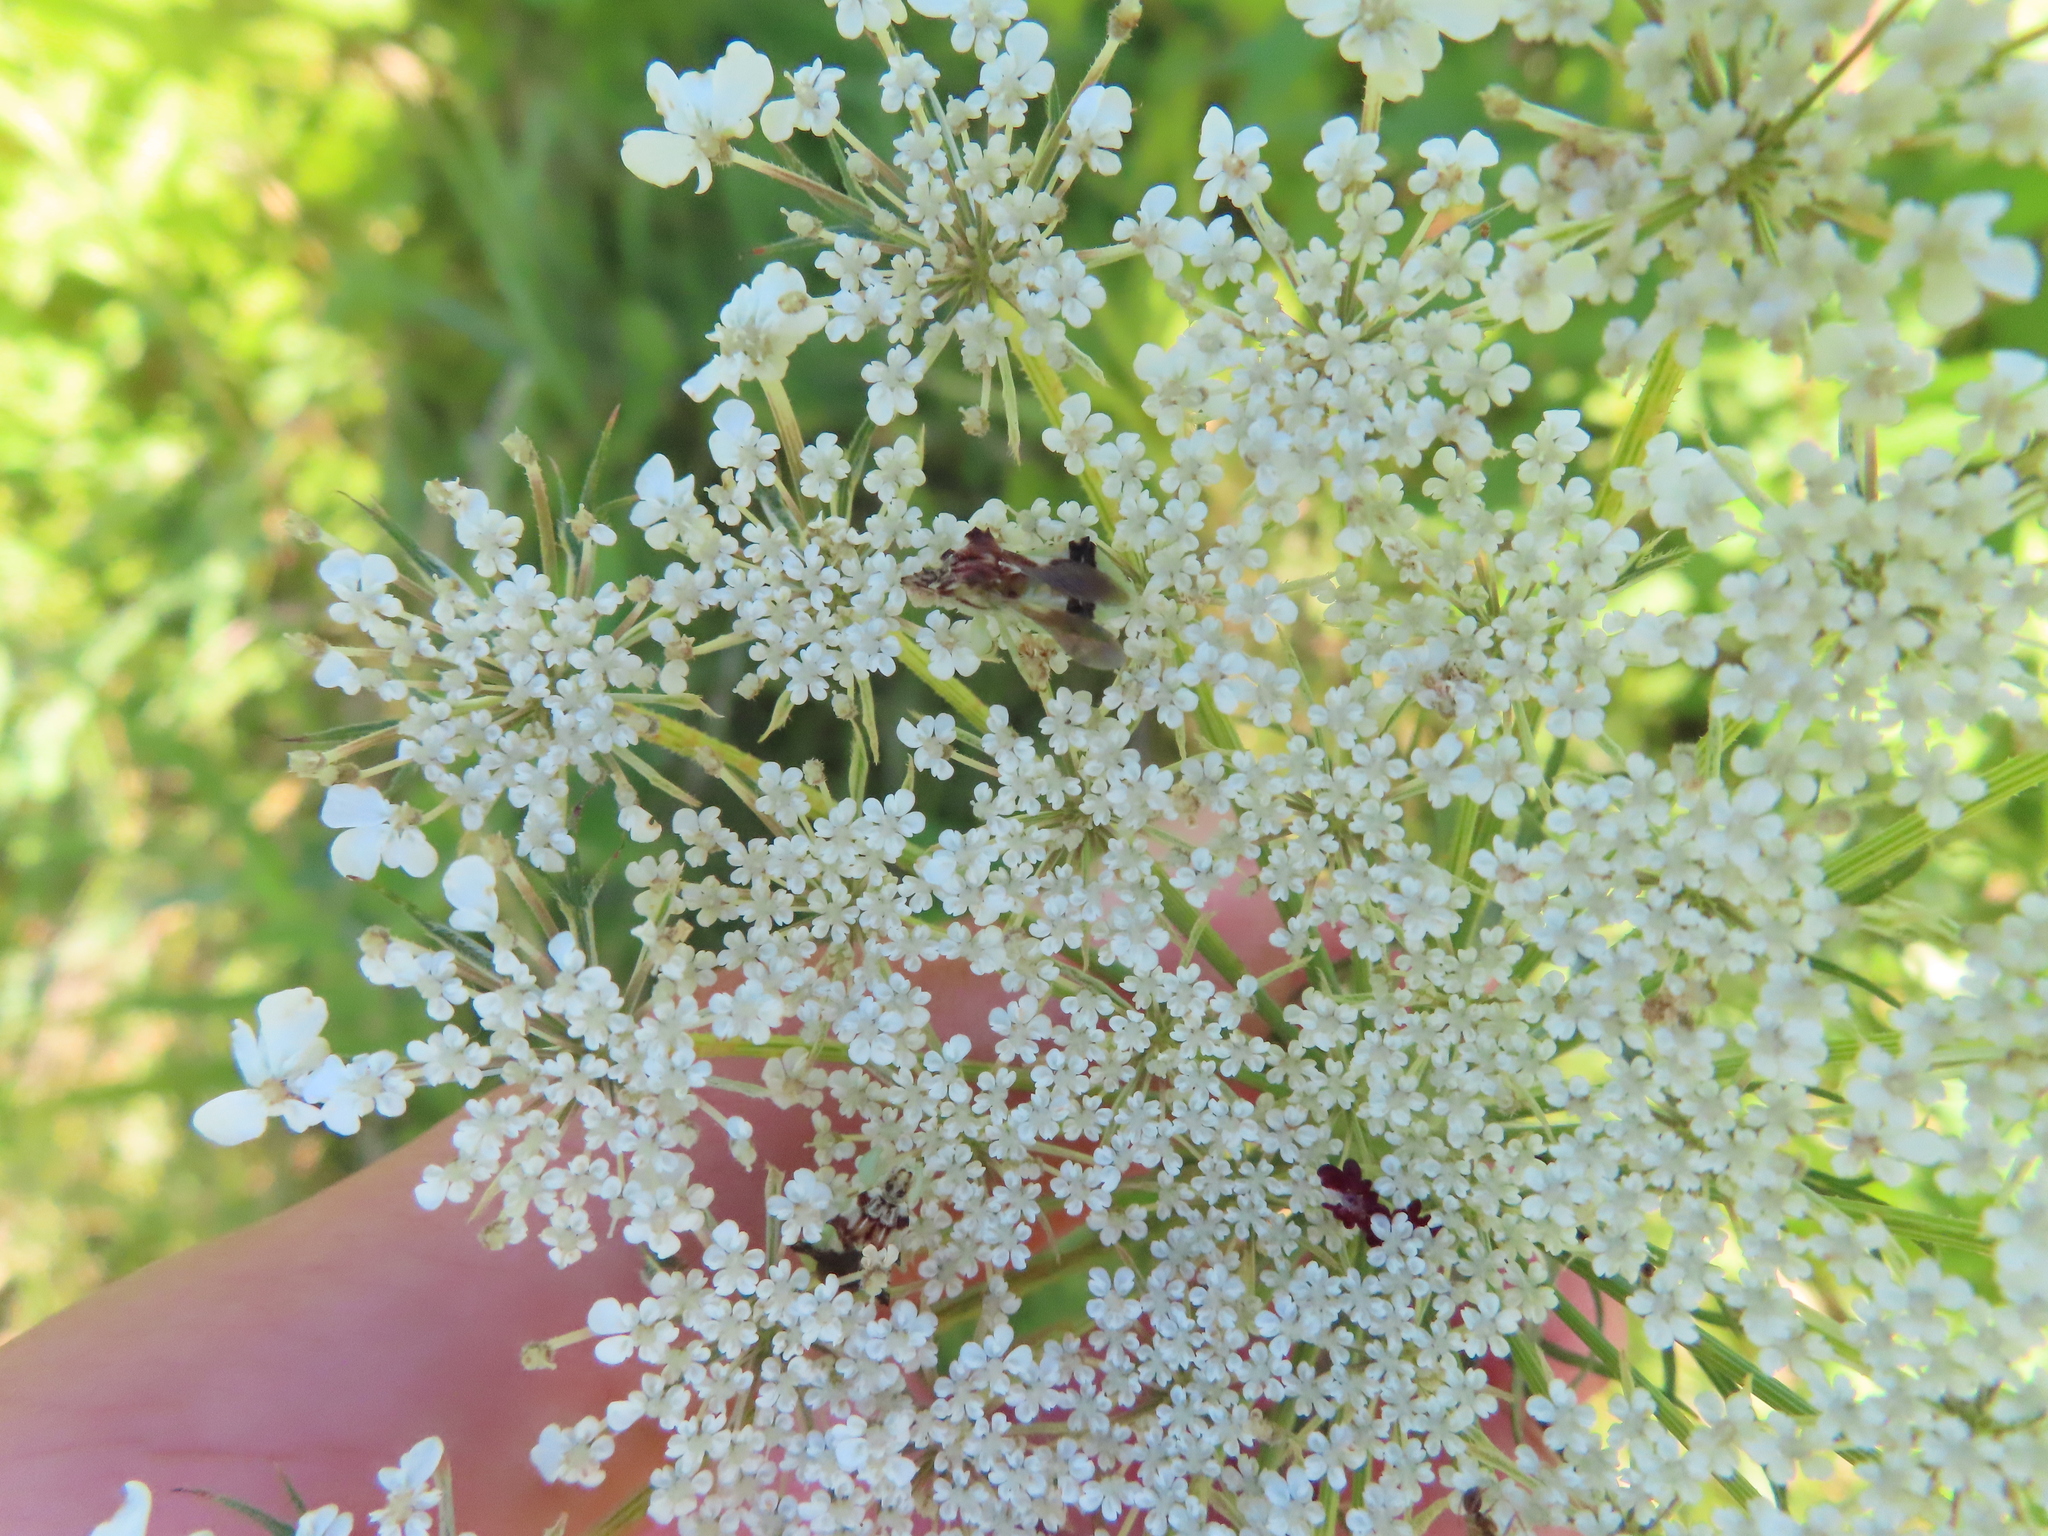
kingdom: Animalia
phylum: Arthropoda
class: Insecta
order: Hemiptera
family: Reduviidae
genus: Phymata
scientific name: Phymata americana
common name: Jagged ambush bug
